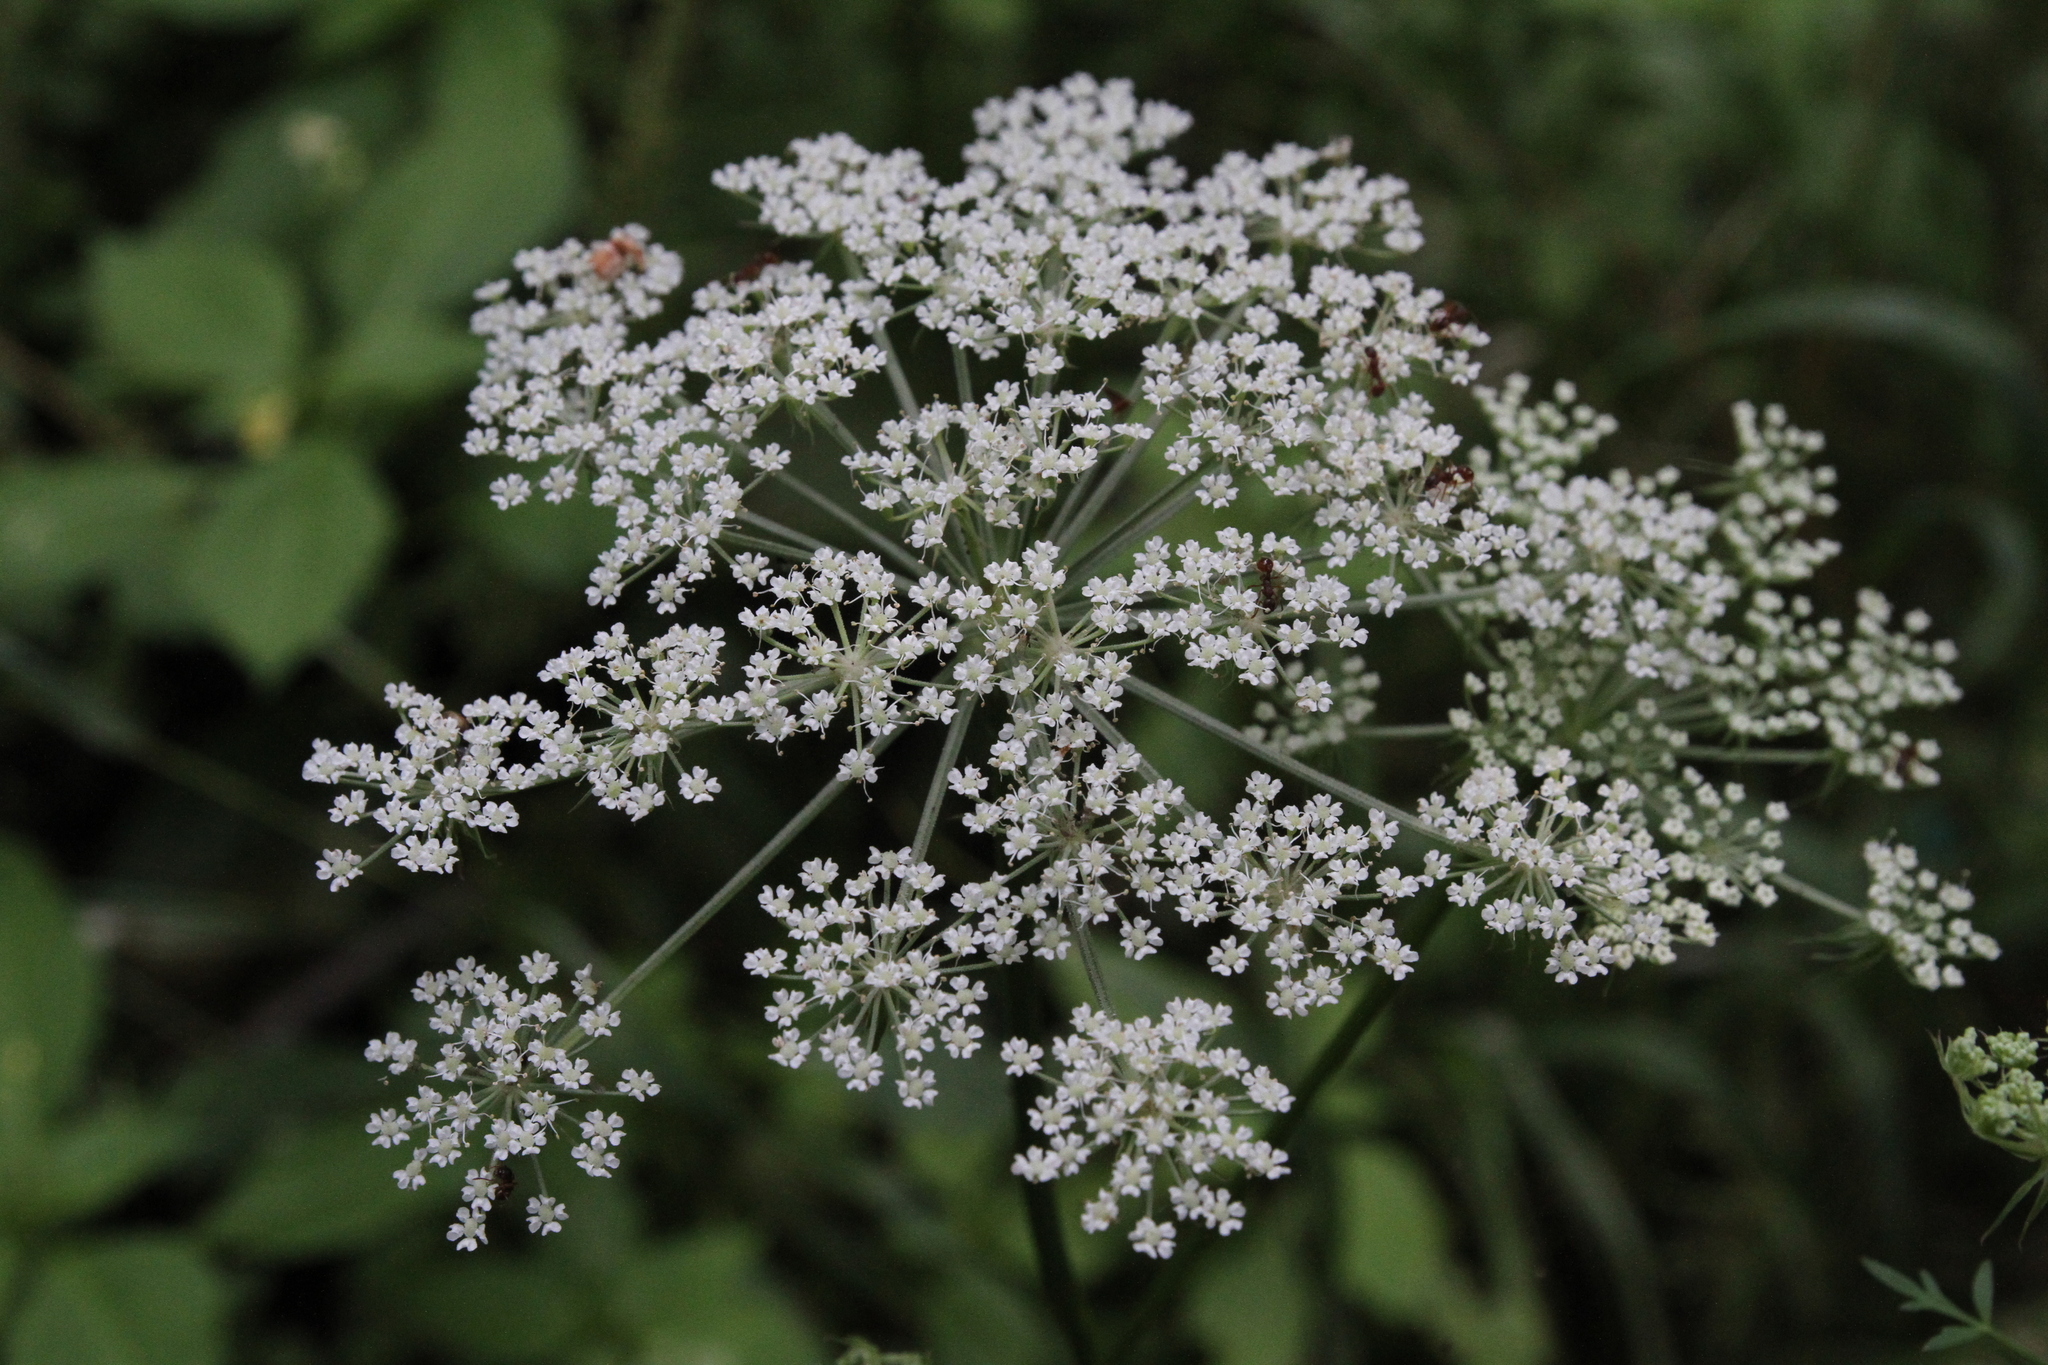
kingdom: Plantae
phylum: Tracheophyta
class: Magnoliopsida
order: Apiales
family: Apiaceae
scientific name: Apiaceae
